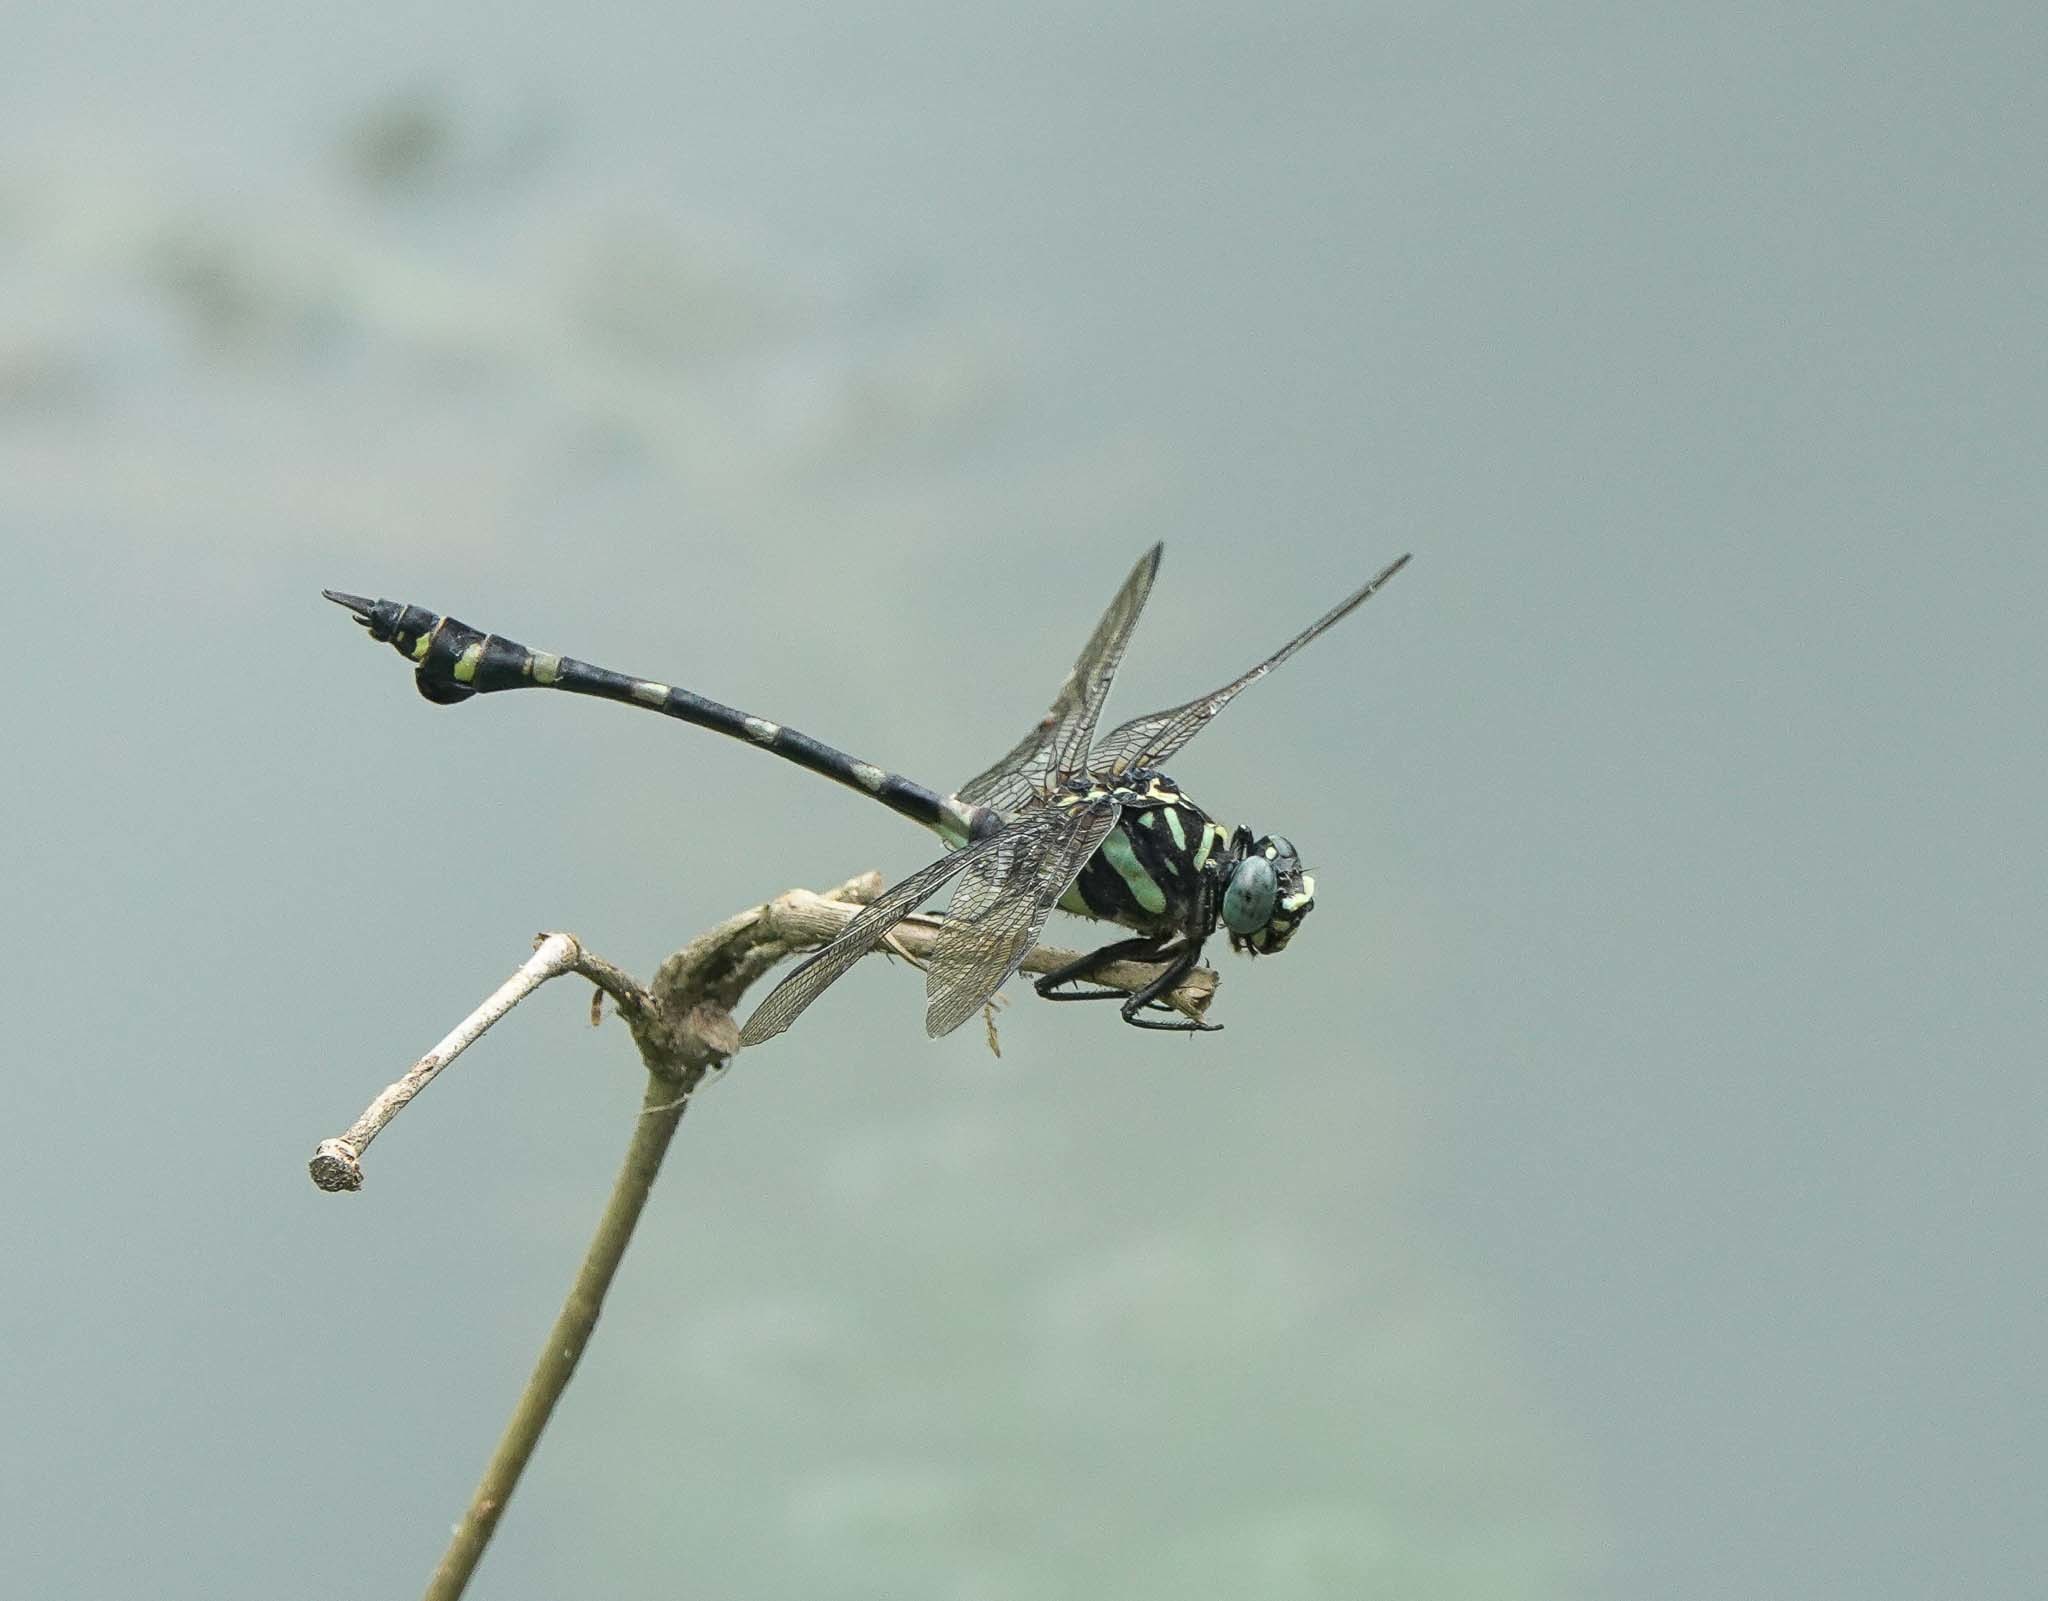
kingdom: Animalia
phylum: Arthropoda
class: Insecta
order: Odonata
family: Gomphidae
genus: Ictinogomphus
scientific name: Ictinogomphus decoratus
